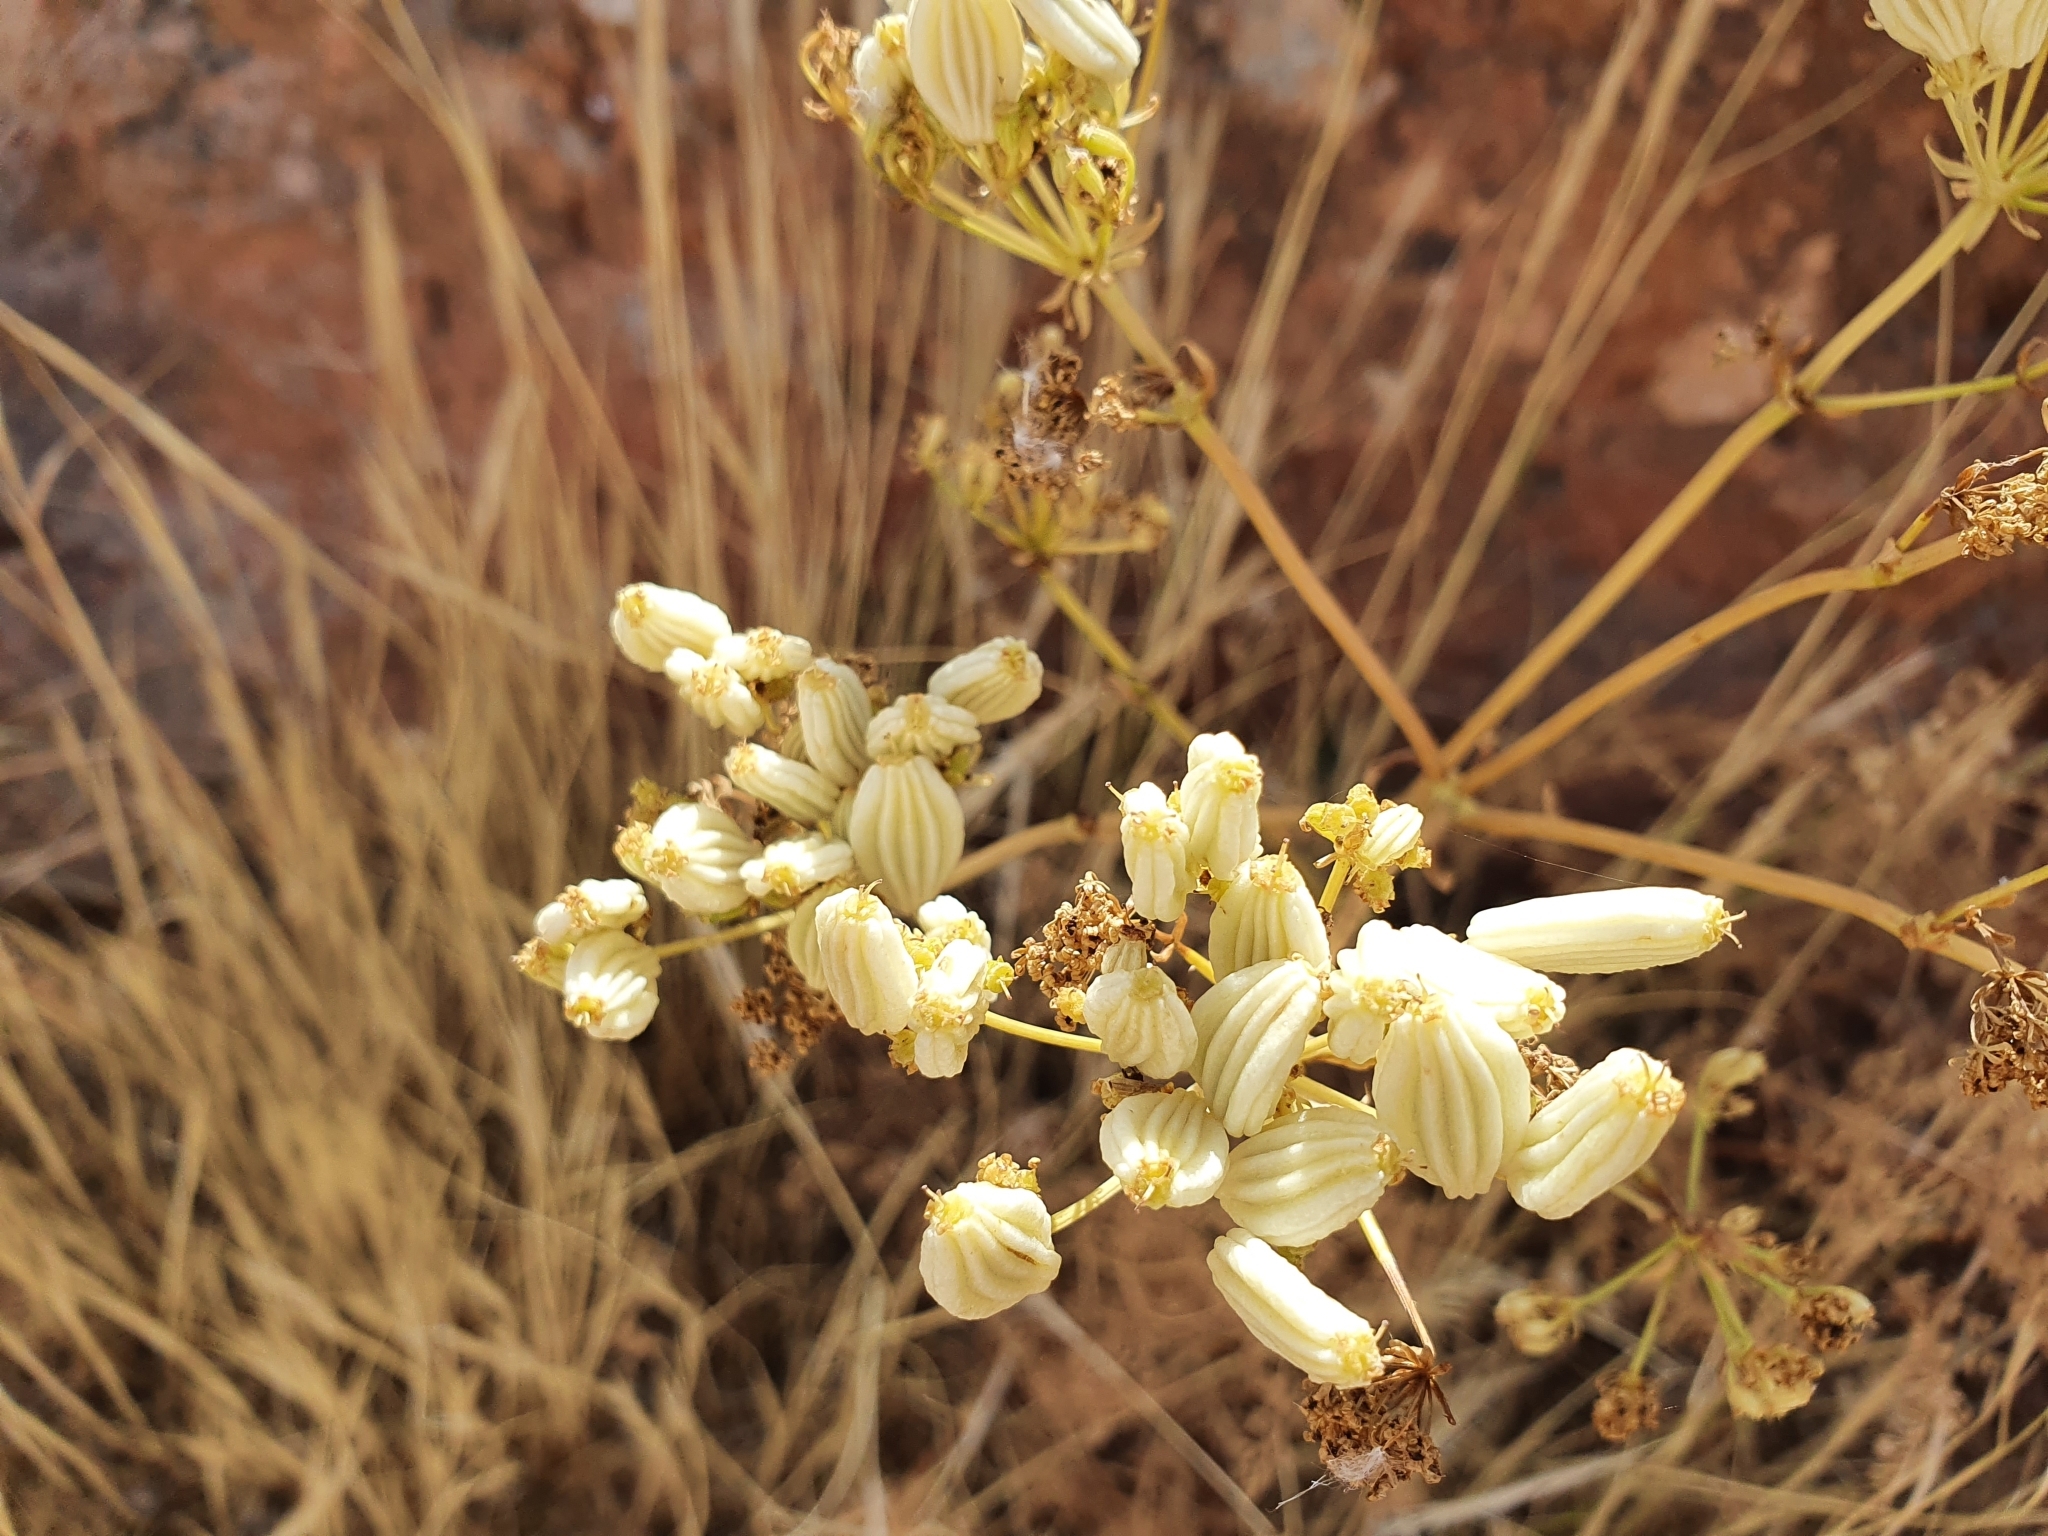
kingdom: Plantae
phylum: Tracheophyta
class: Magnoliopsida
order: Apiales
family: Apiaceae
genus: Ferulago
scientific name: Ferulago lutea
